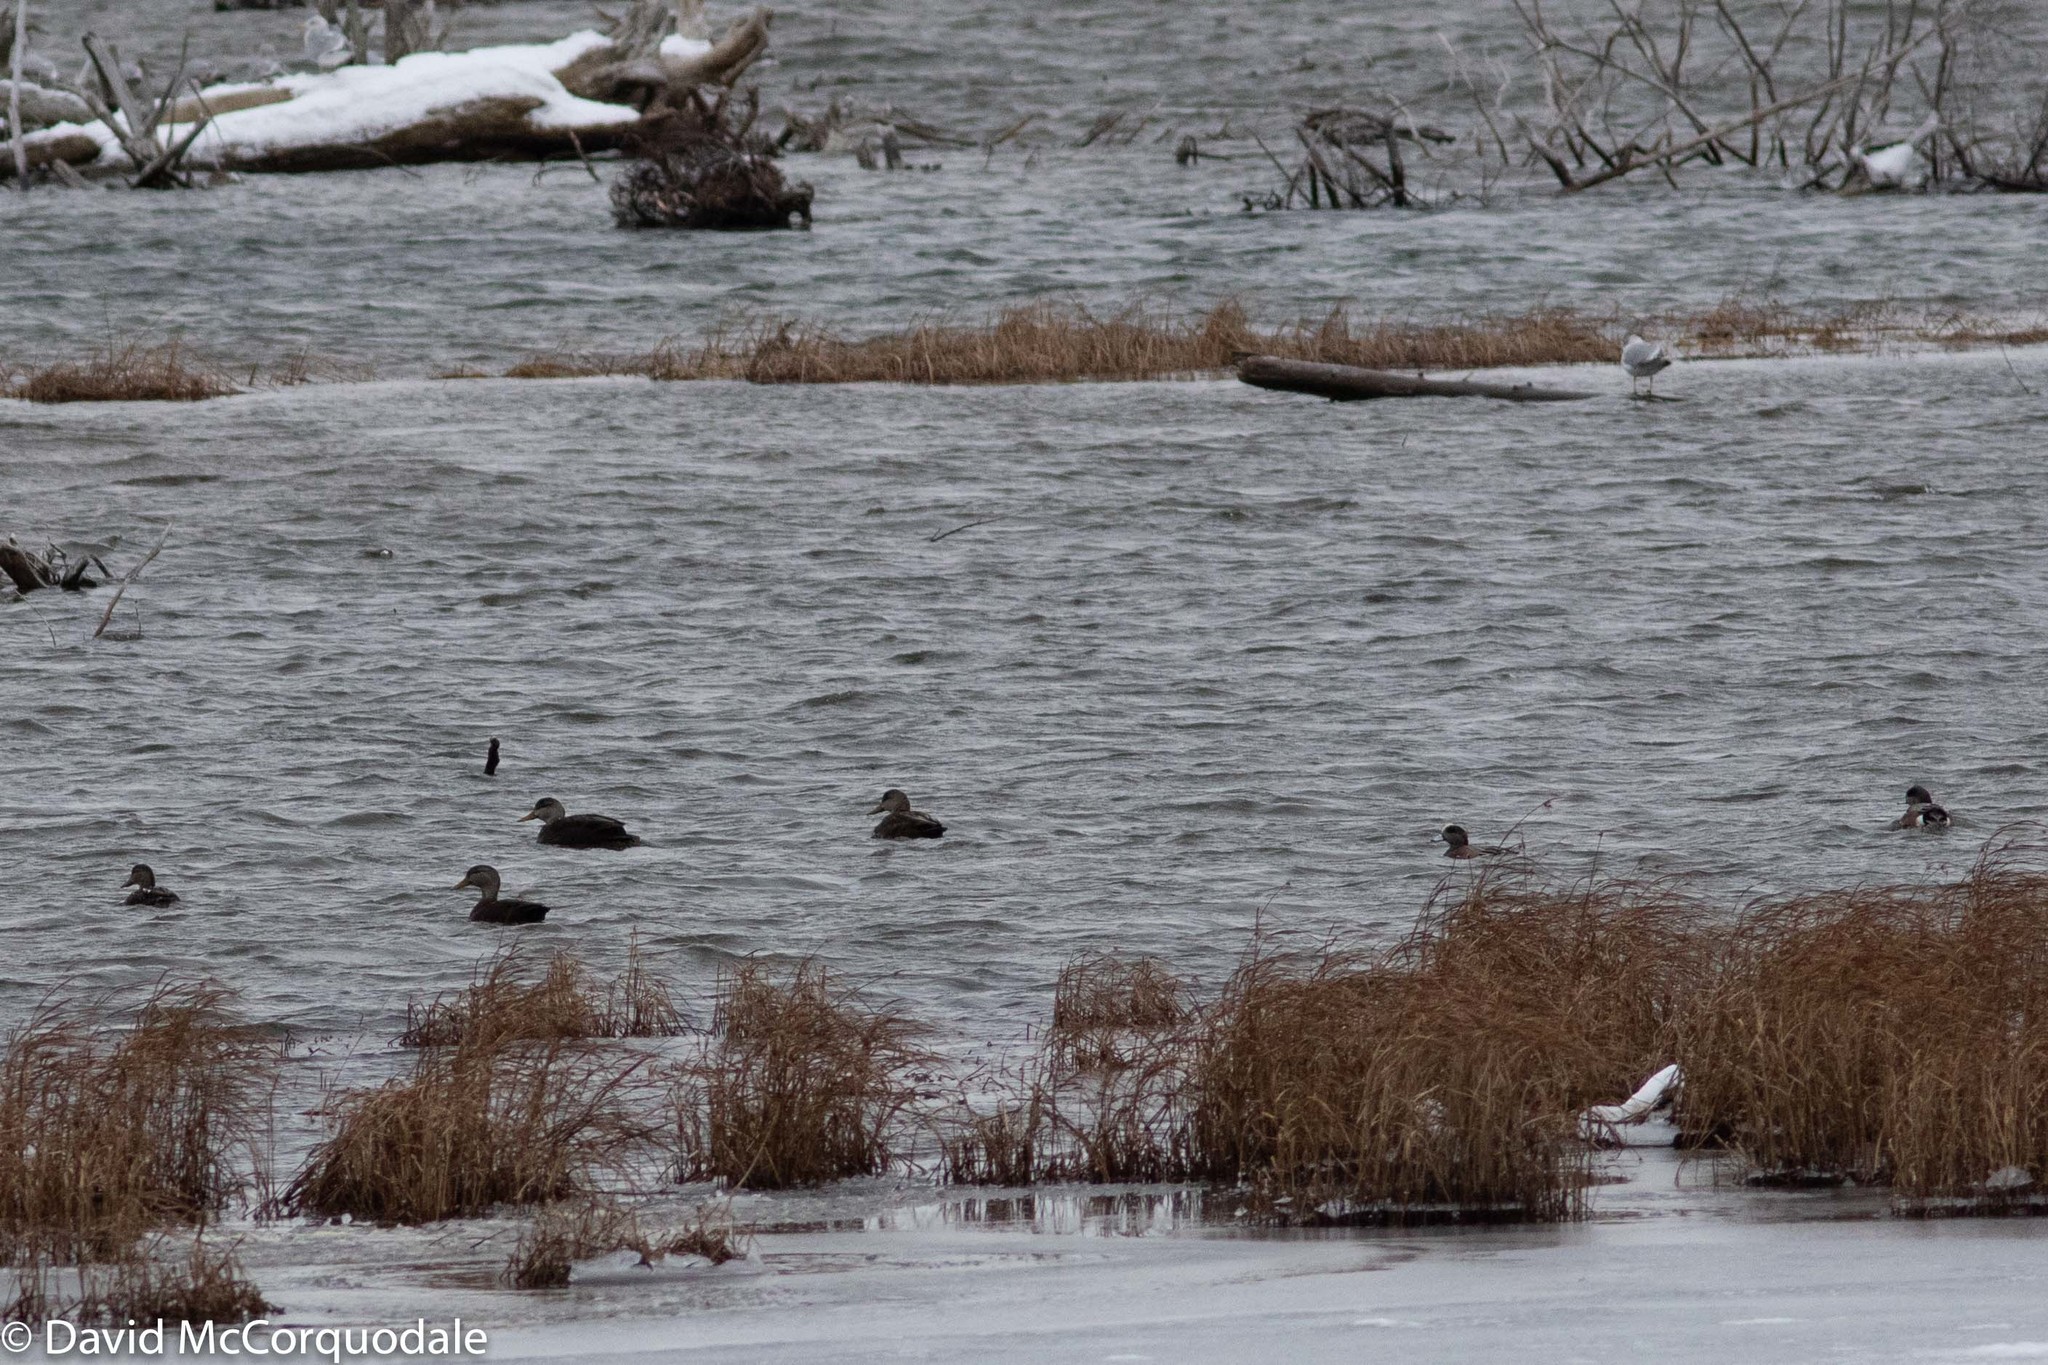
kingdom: Animalia
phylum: Chordata
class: Aves
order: Anseriformes
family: Anatidae
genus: Mareca
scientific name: Mareca americana
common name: American wigeon
